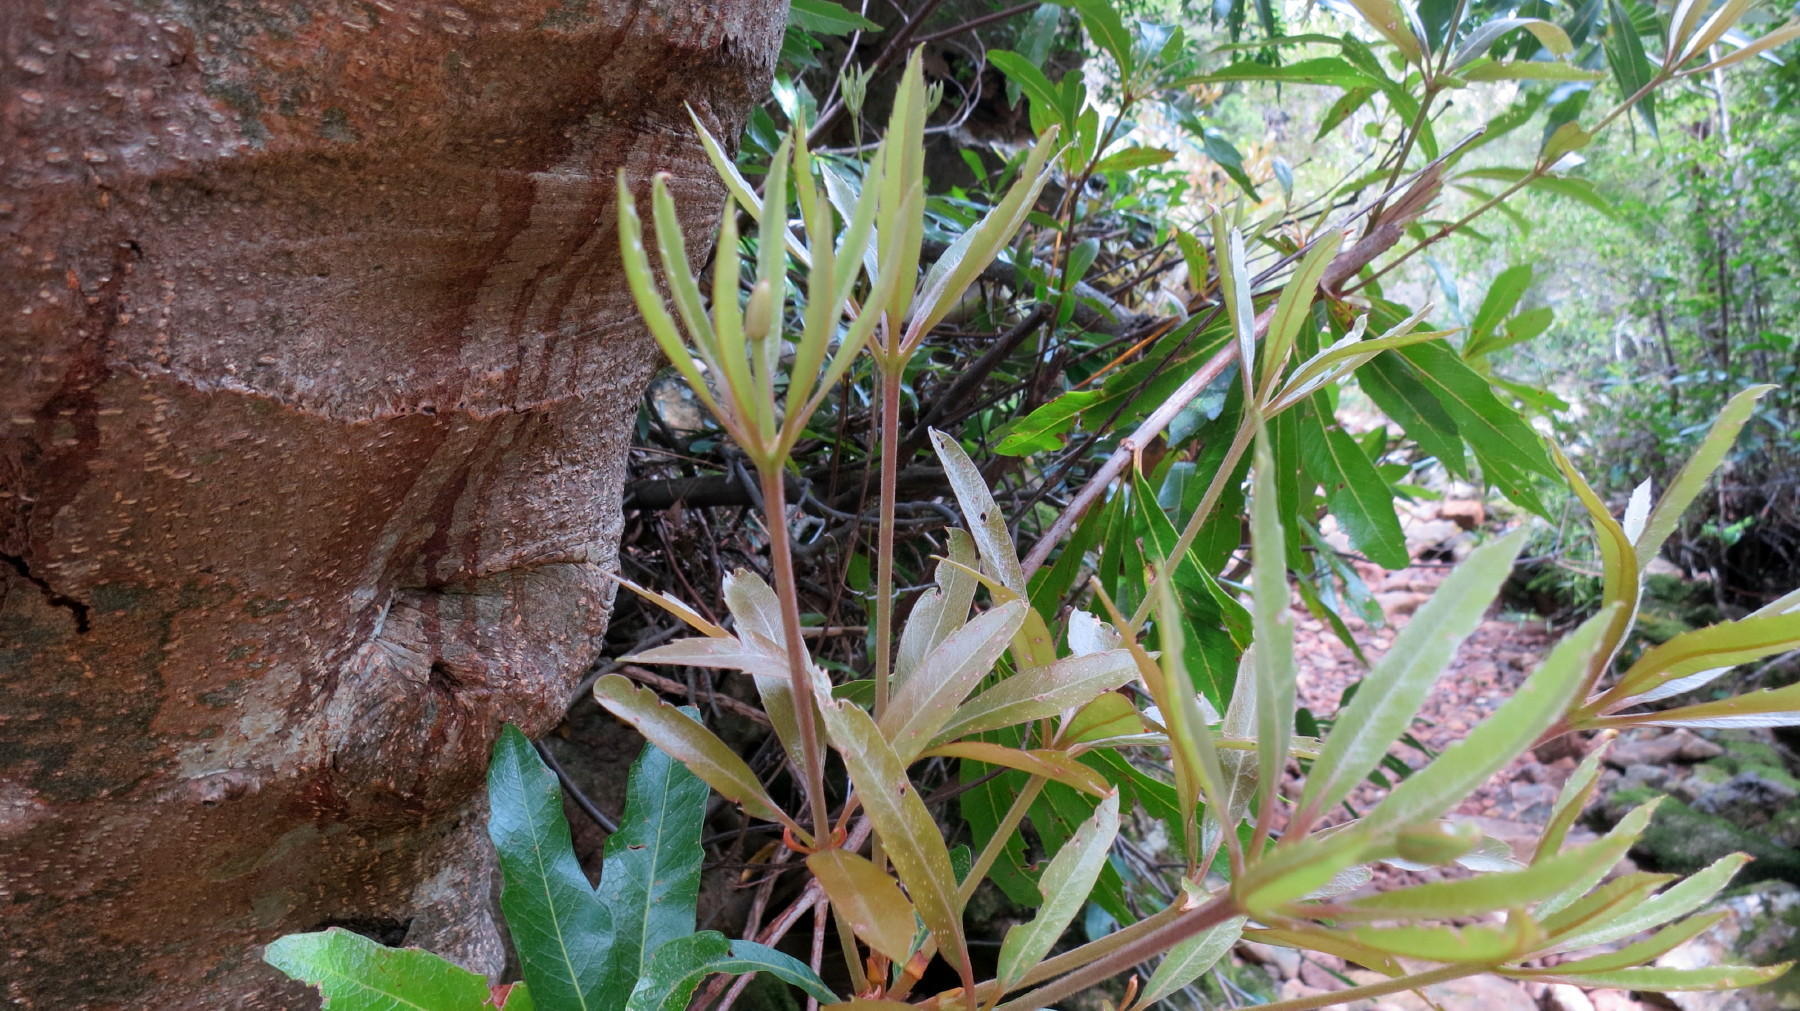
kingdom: Plantae
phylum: Tracheophyta
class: Magnoliopsida
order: Proteales
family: Proteaceae
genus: Brabejum
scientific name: Brabejum stellatifolium
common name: Wild almond
